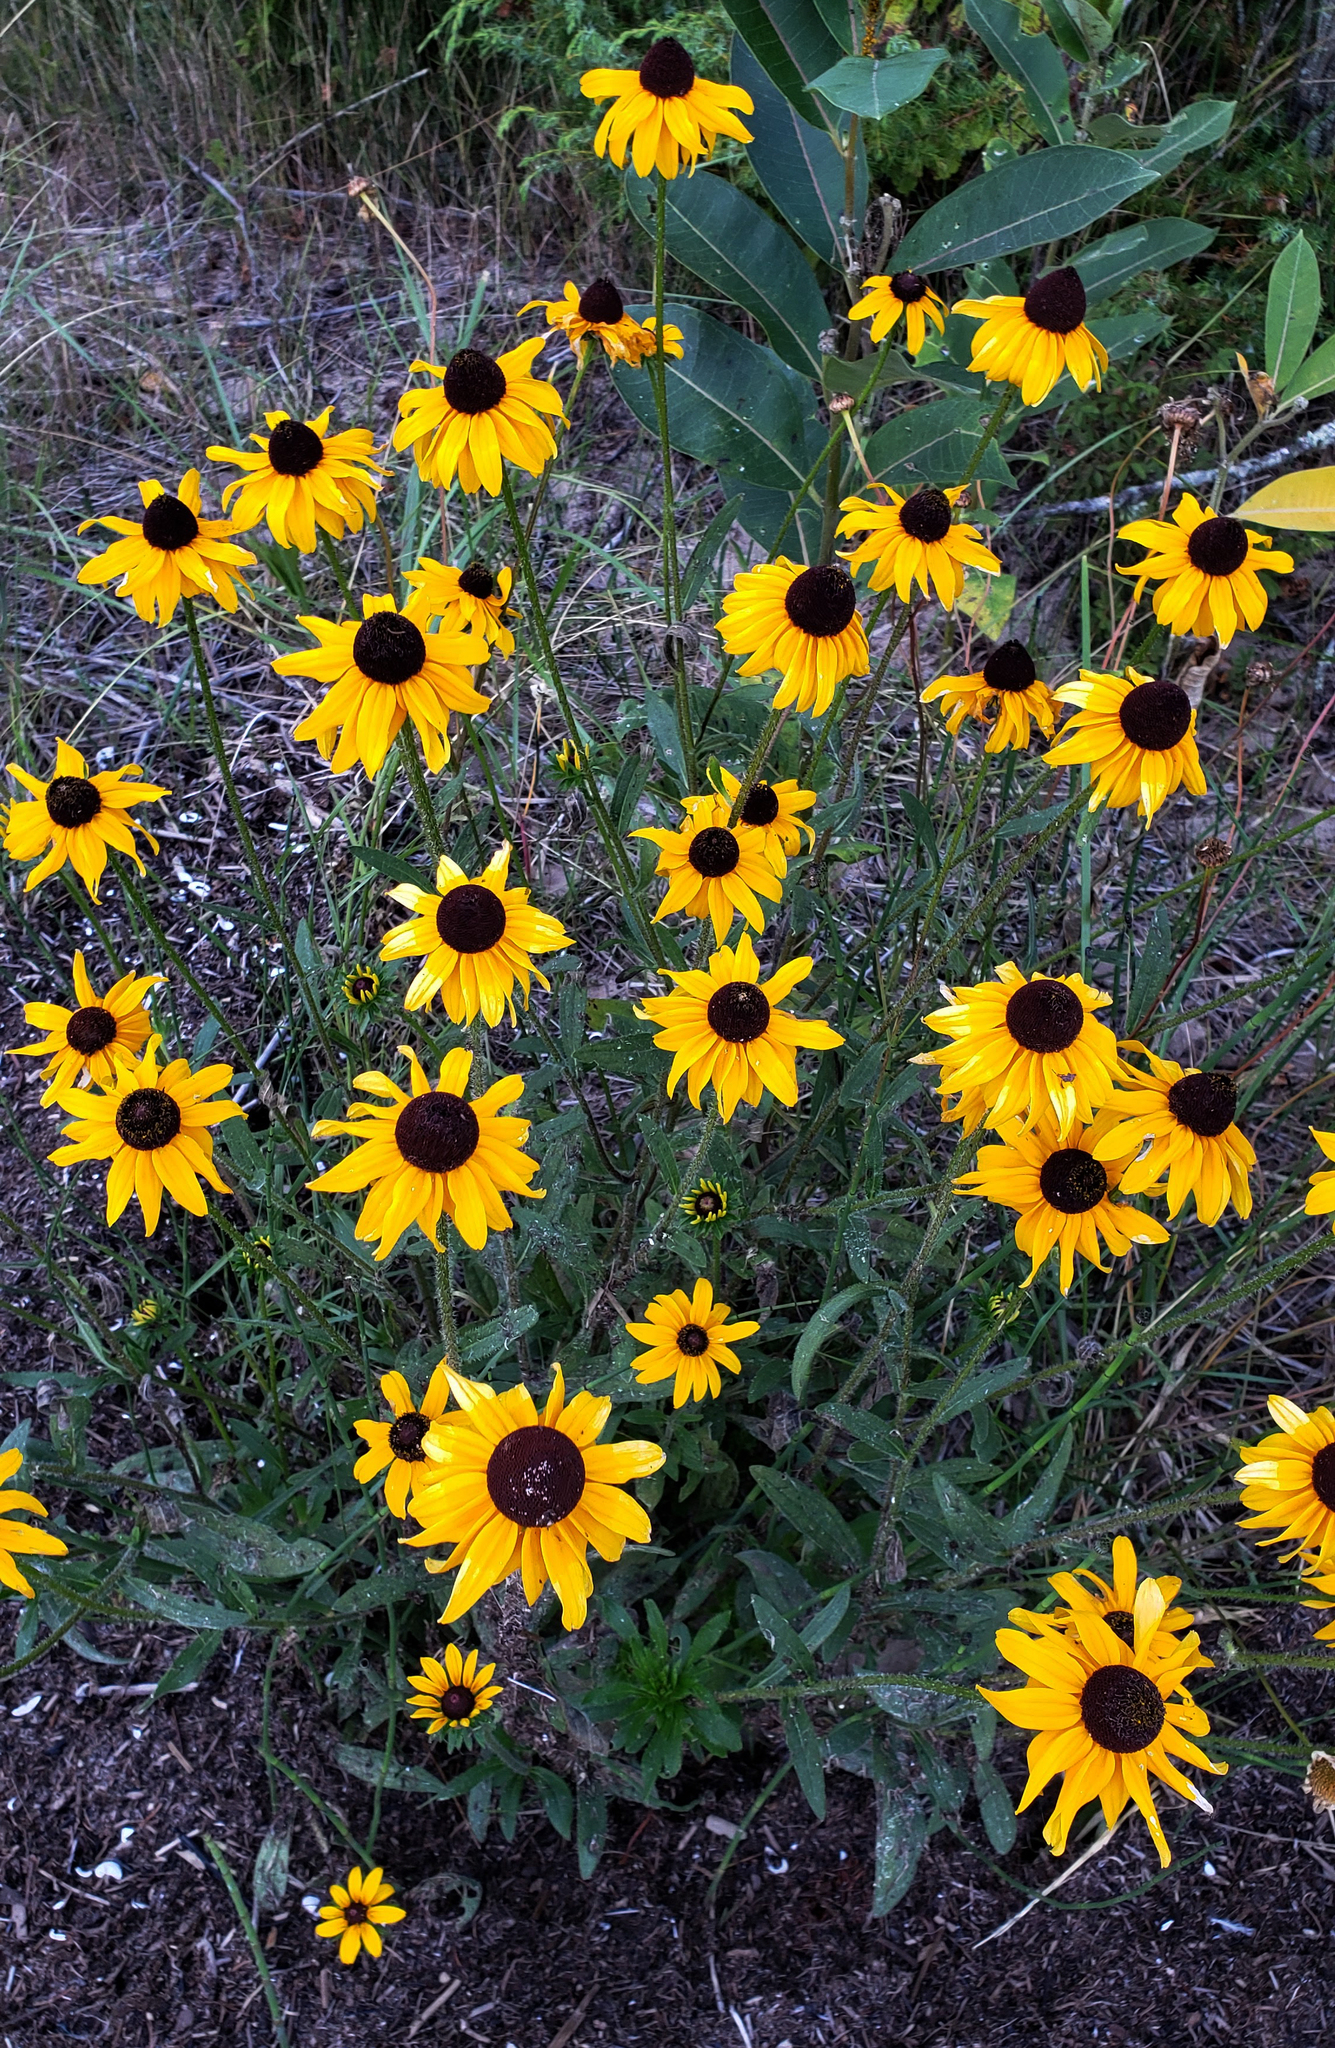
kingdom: Plantae
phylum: Tracheophyta
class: Magnoliopsida
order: Asterales
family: Asteraceae
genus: Rudbeckia
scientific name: Rudbeckia hirta
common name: Black-eyed-susan
